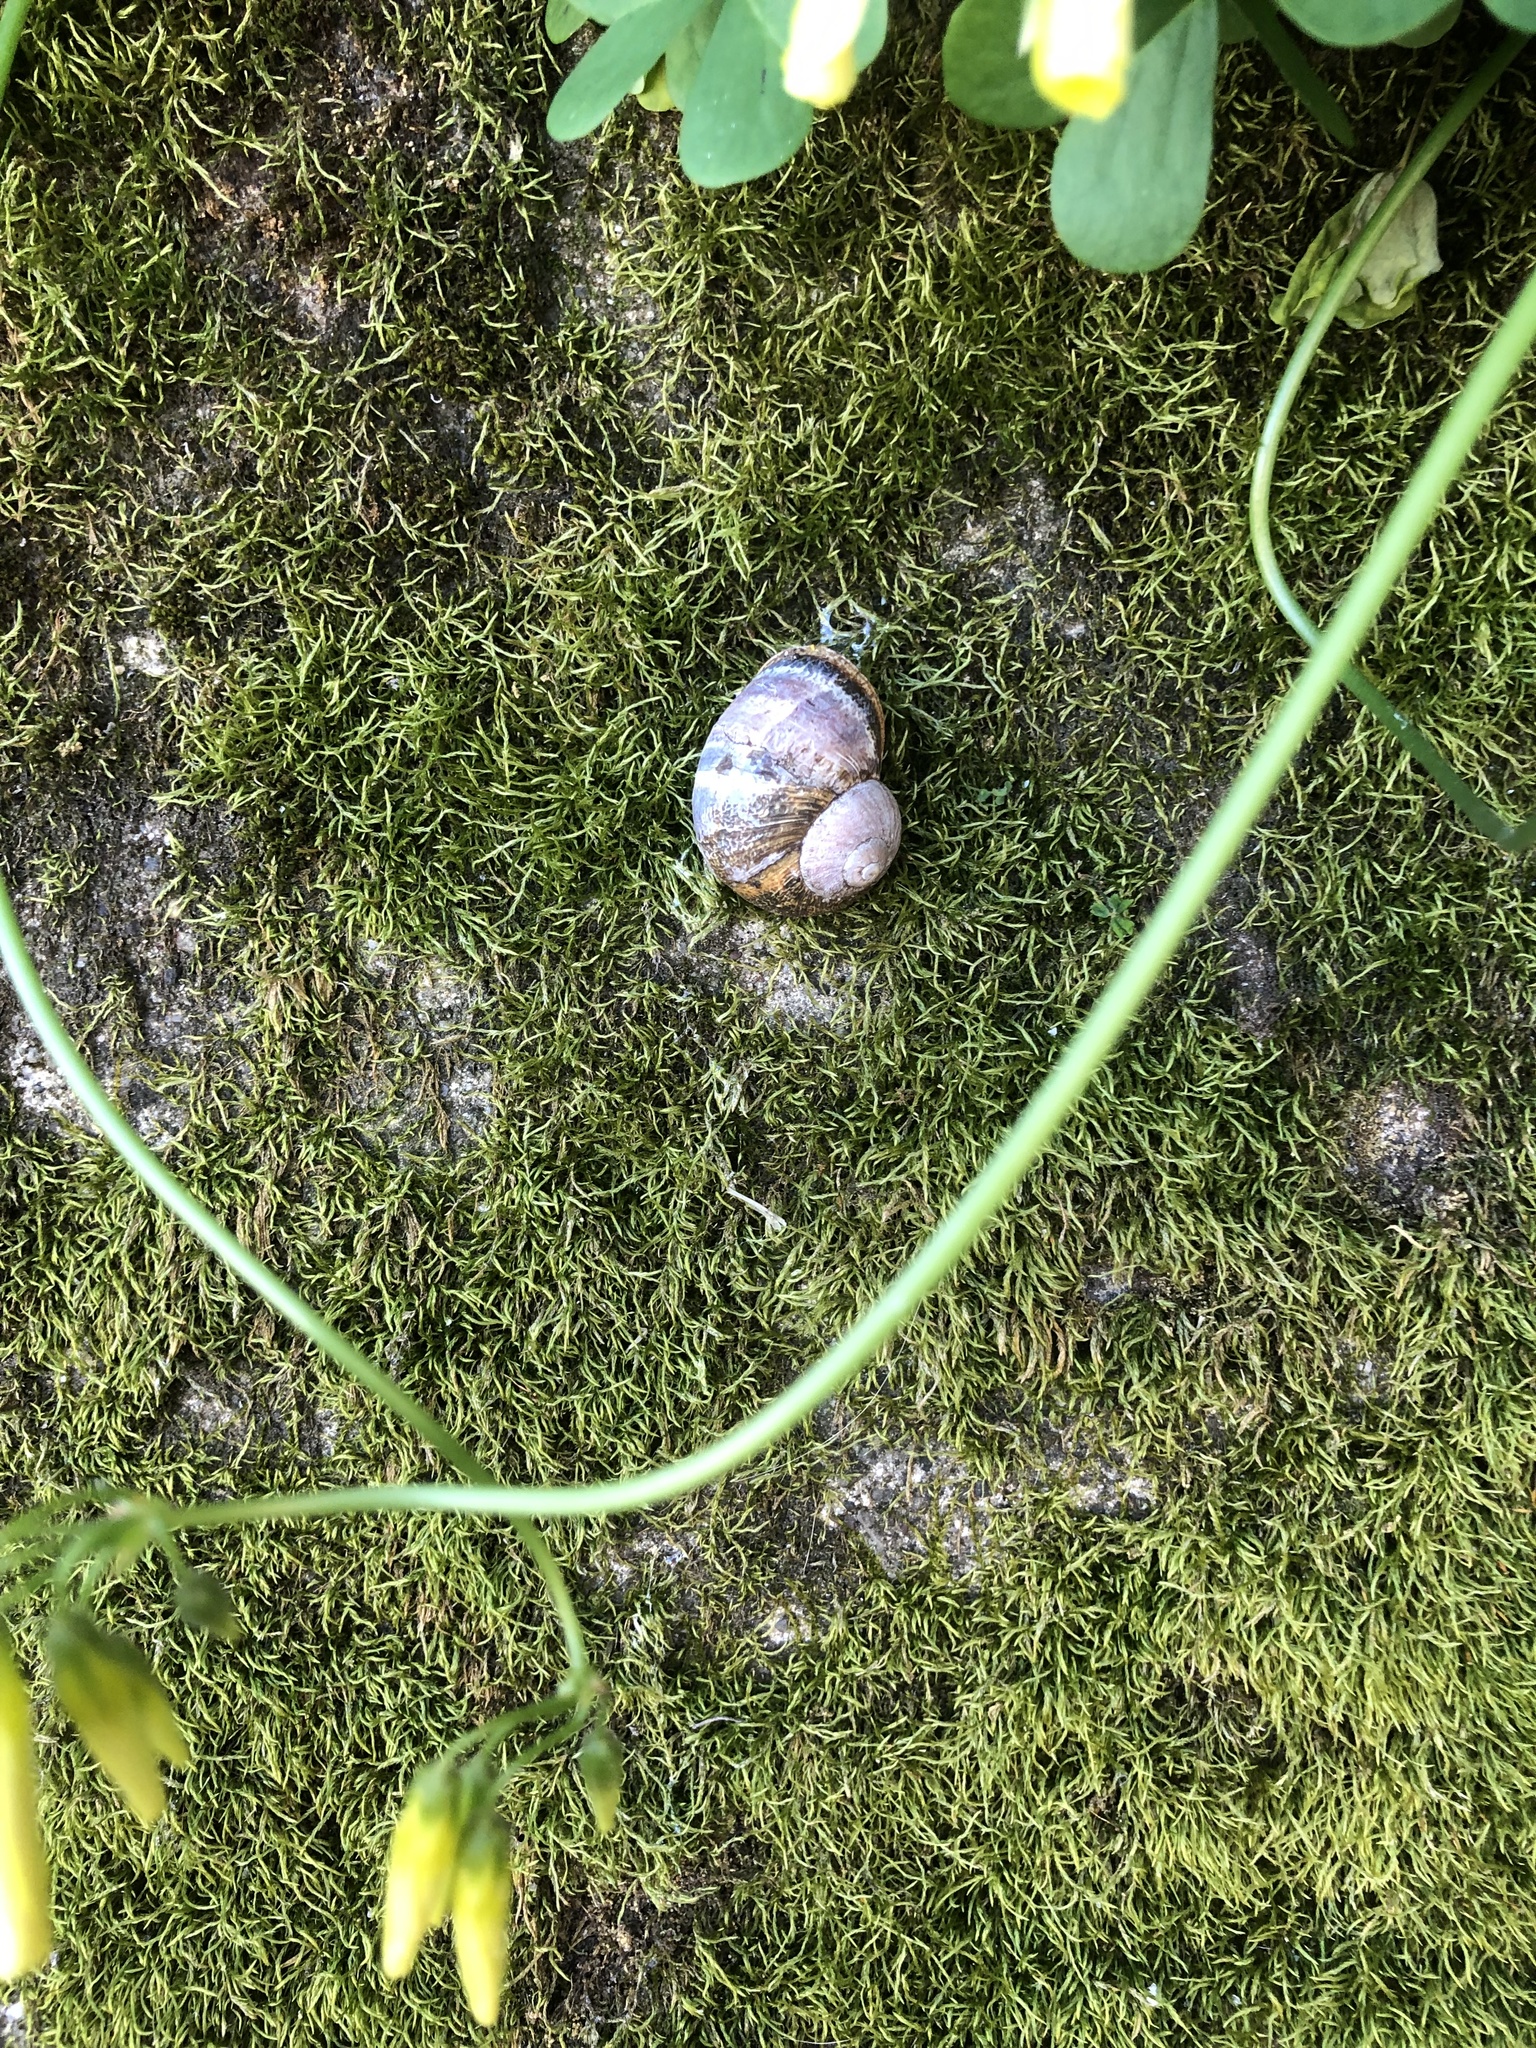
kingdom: Animalia
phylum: Mollusca
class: Gastropoda
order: Stylommatophora
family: Helicidae
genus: Cornu
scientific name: Cornu aspersum
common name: Brown garden snail
